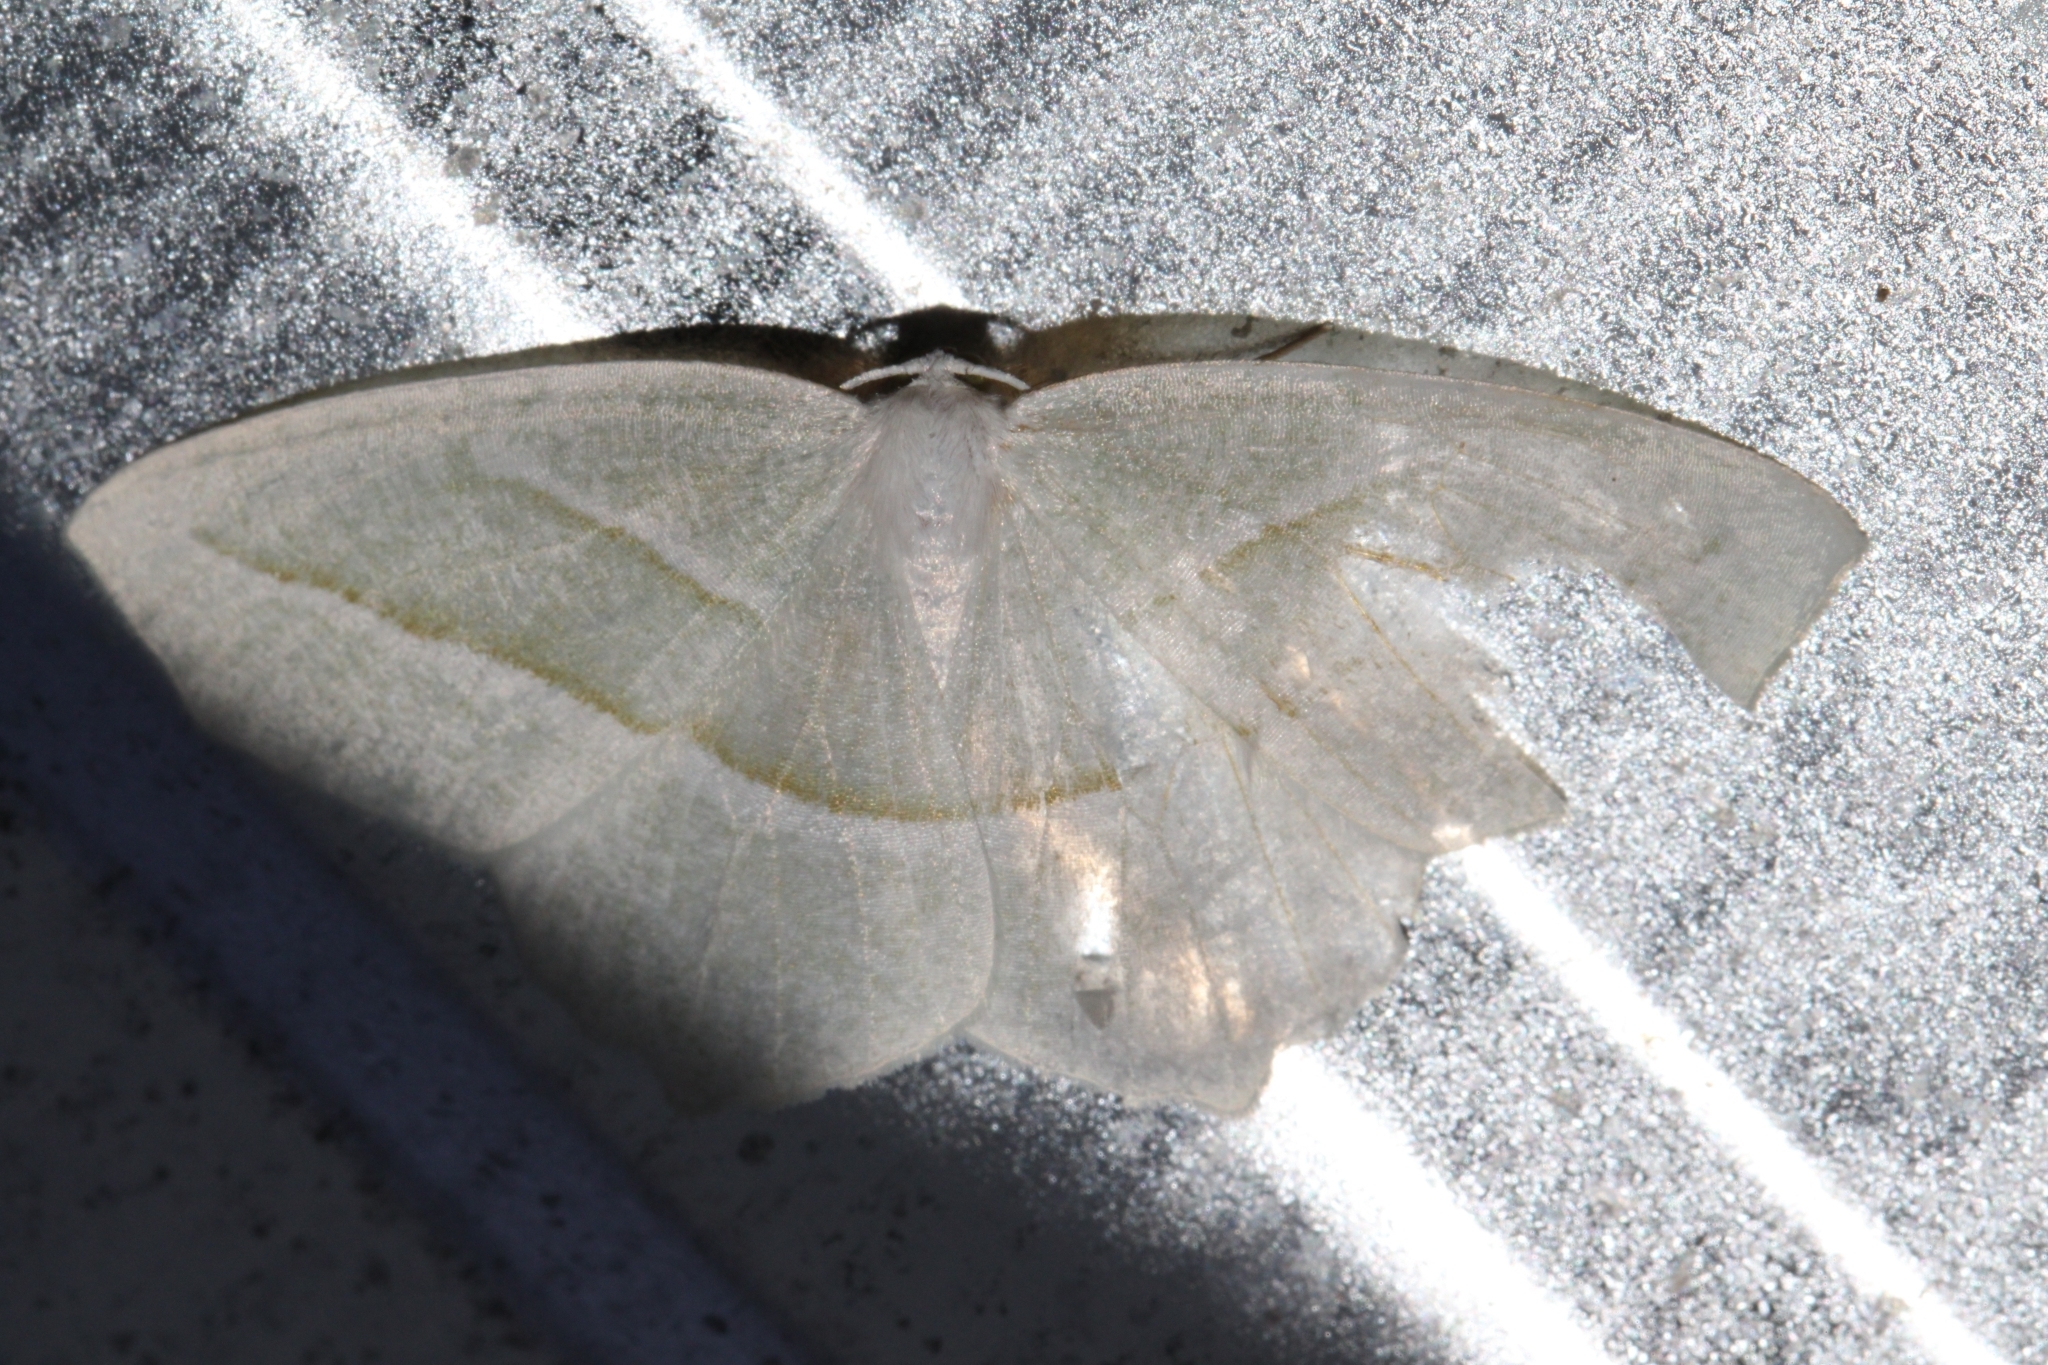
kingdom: Animalia
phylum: Arthropoda
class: Insecta
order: Lepidoptera
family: Geometridae
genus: Campaea
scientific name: Campaea perlata
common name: Fringed looper
